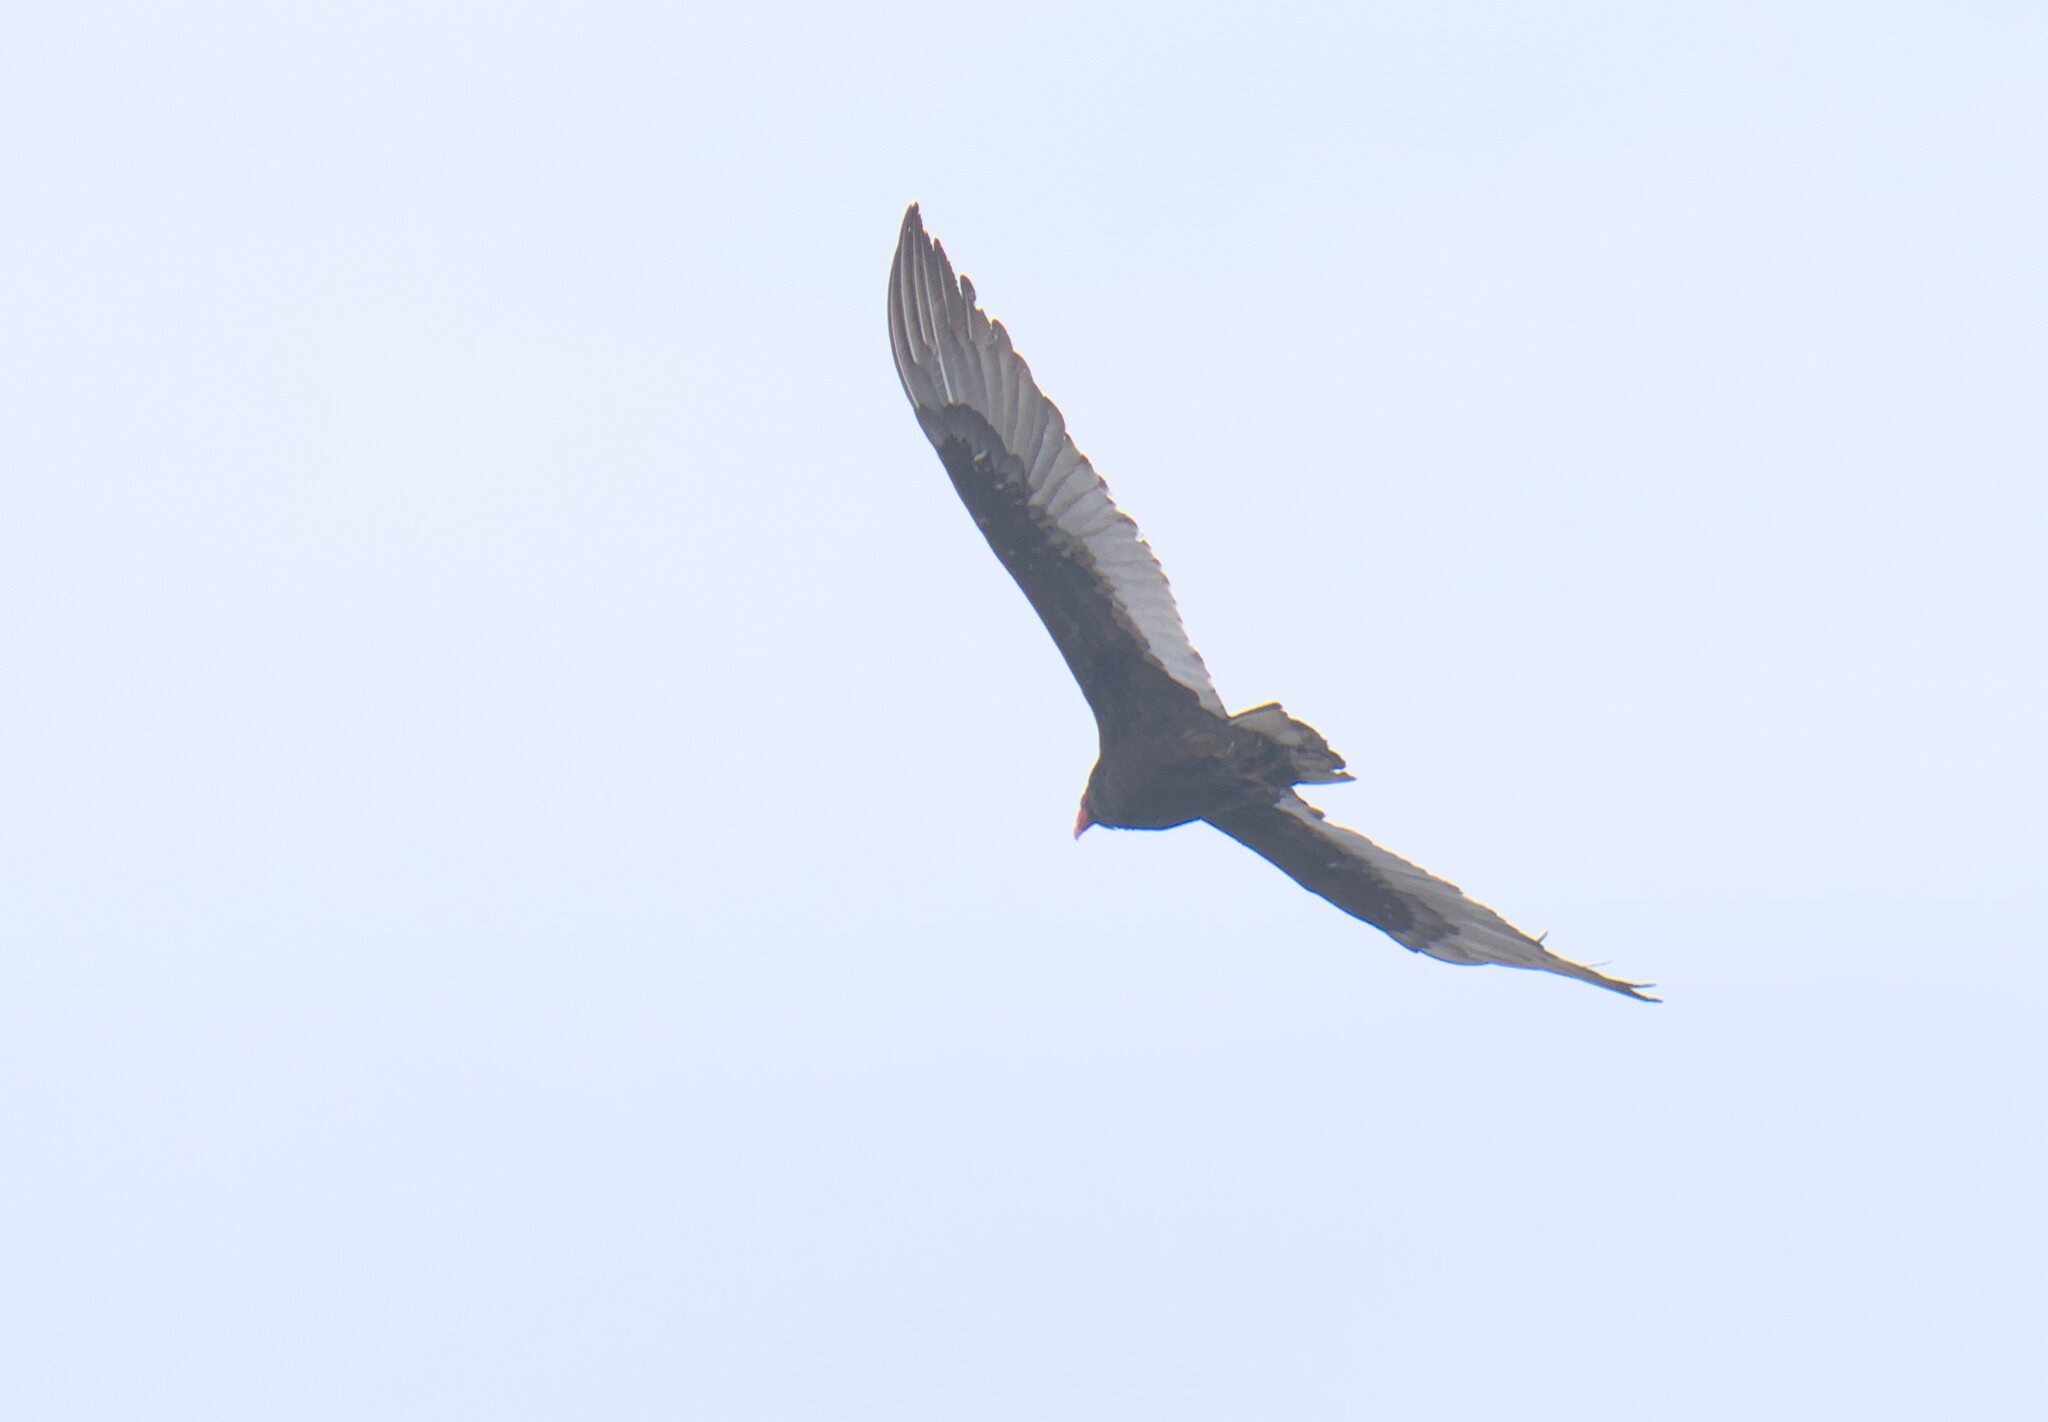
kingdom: Animalia
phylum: Chordata
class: Aves
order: Accipitriformes
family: Cathartidae
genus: Cathartes
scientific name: Cathartes aura
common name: Turkey vulture
